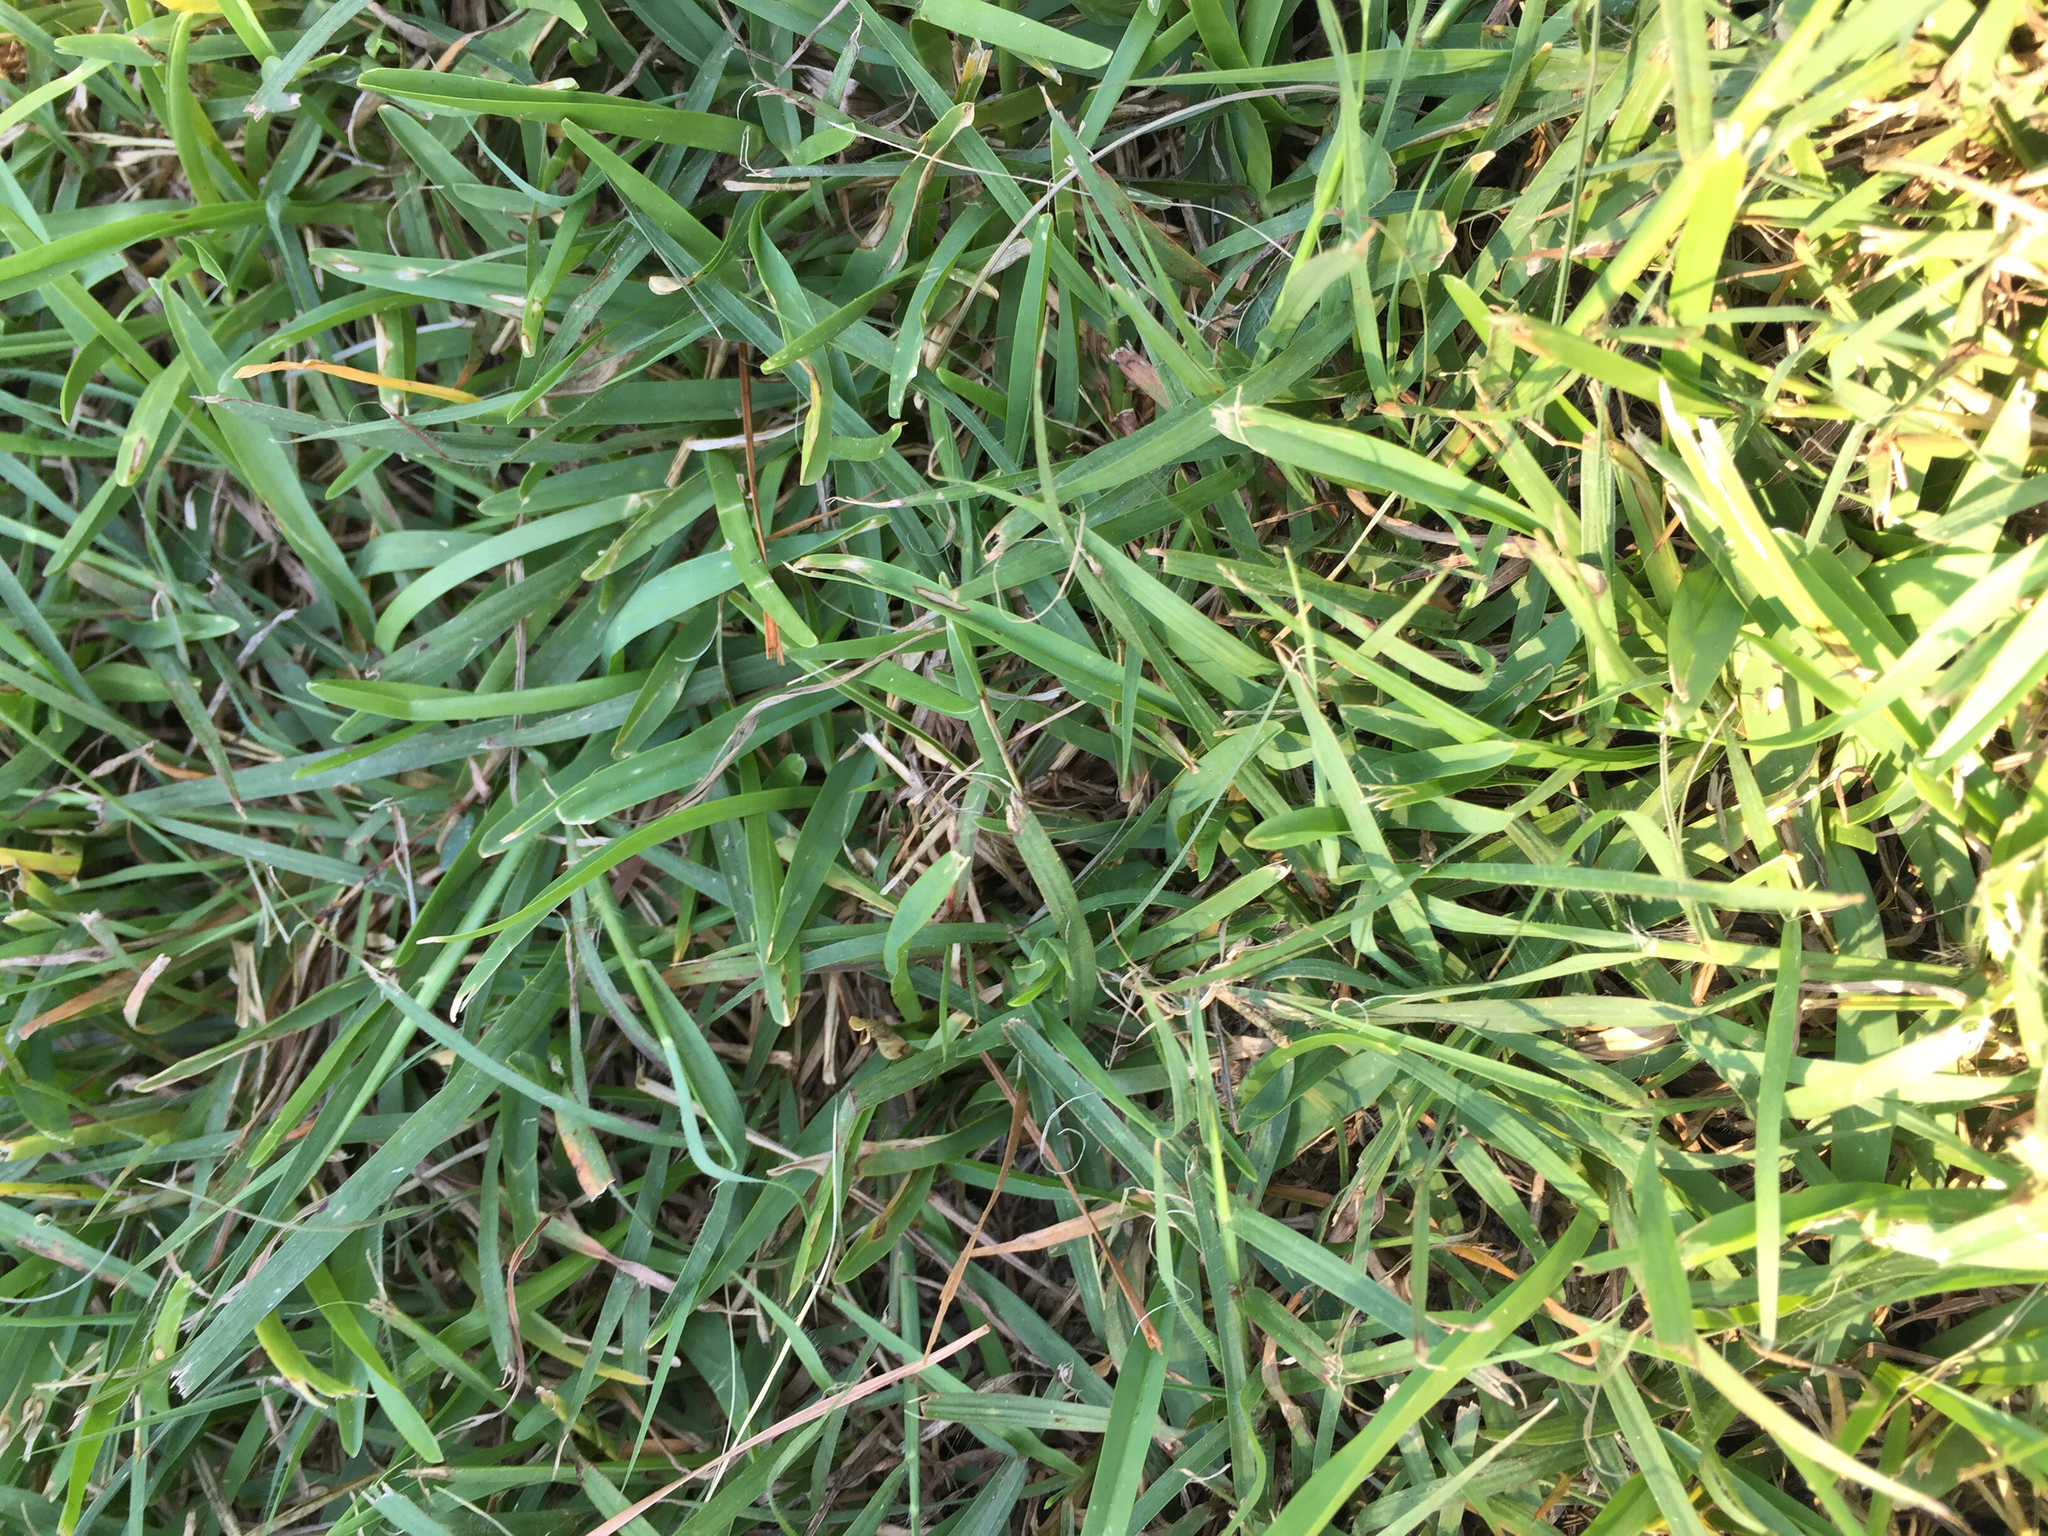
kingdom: Plantae
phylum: Tracheophyta
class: Liliopsida
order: Poales
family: Poaceae
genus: Stenotaphrum
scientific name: Stenotaphrum secundatum
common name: St. augustine grass
